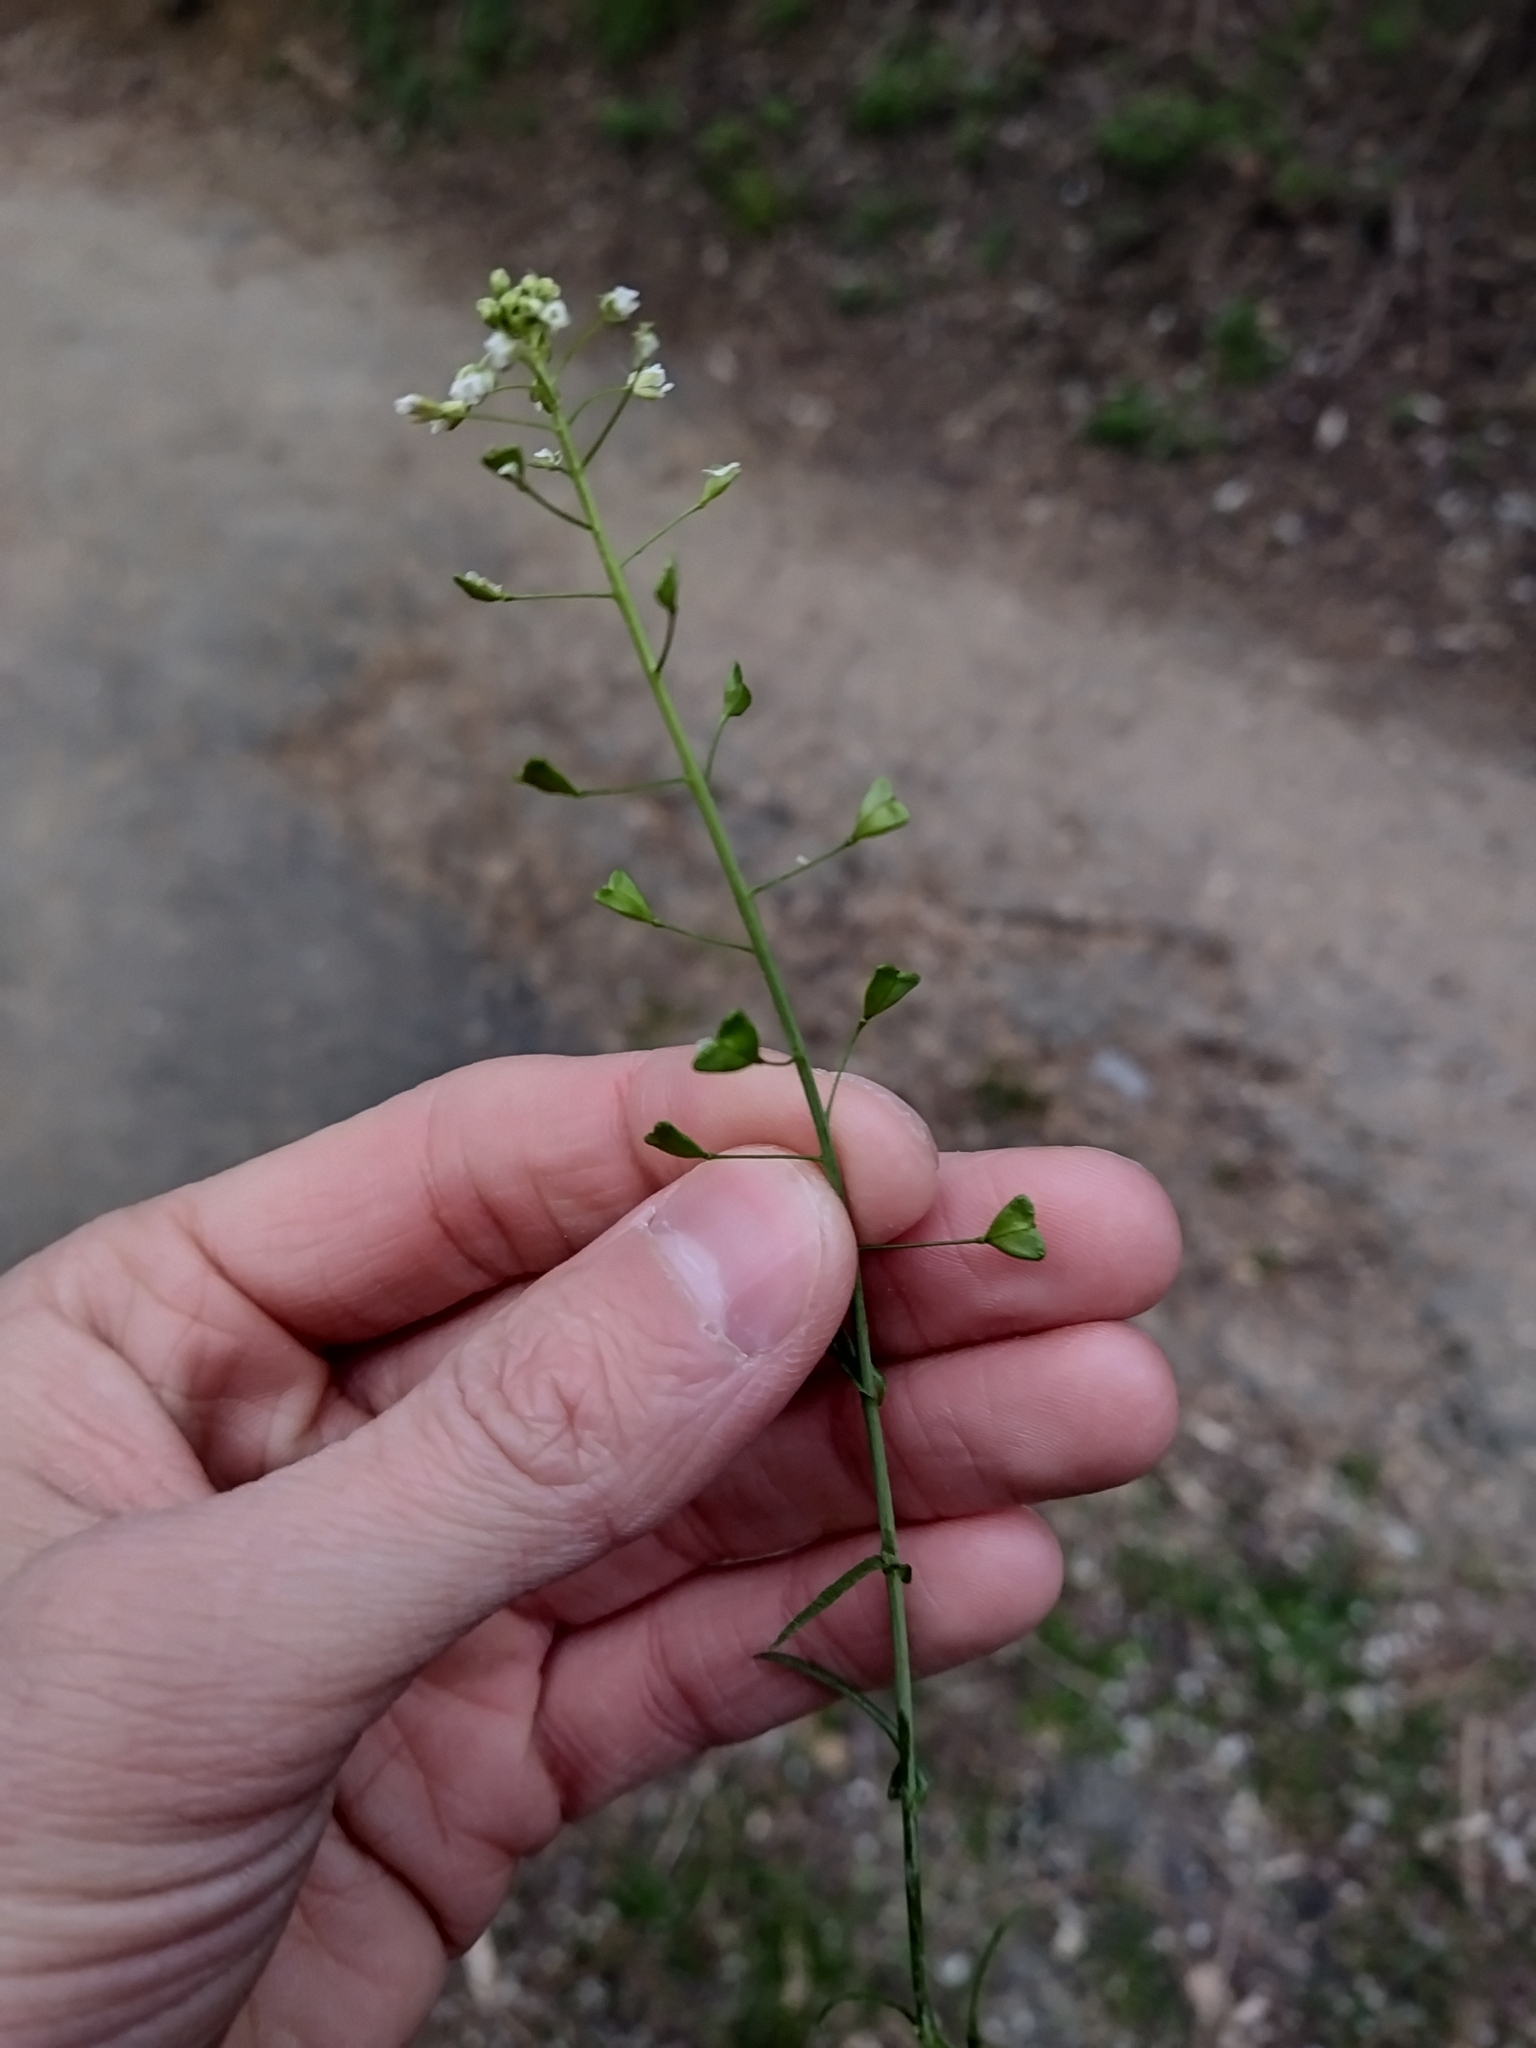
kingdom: Plantae
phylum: Tracheophyta
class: Magnoliopsida
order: Brassicales
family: Brassicaceae
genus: Capsella
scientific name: Capsella bursa-pastoris
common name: Shepherd's purse
